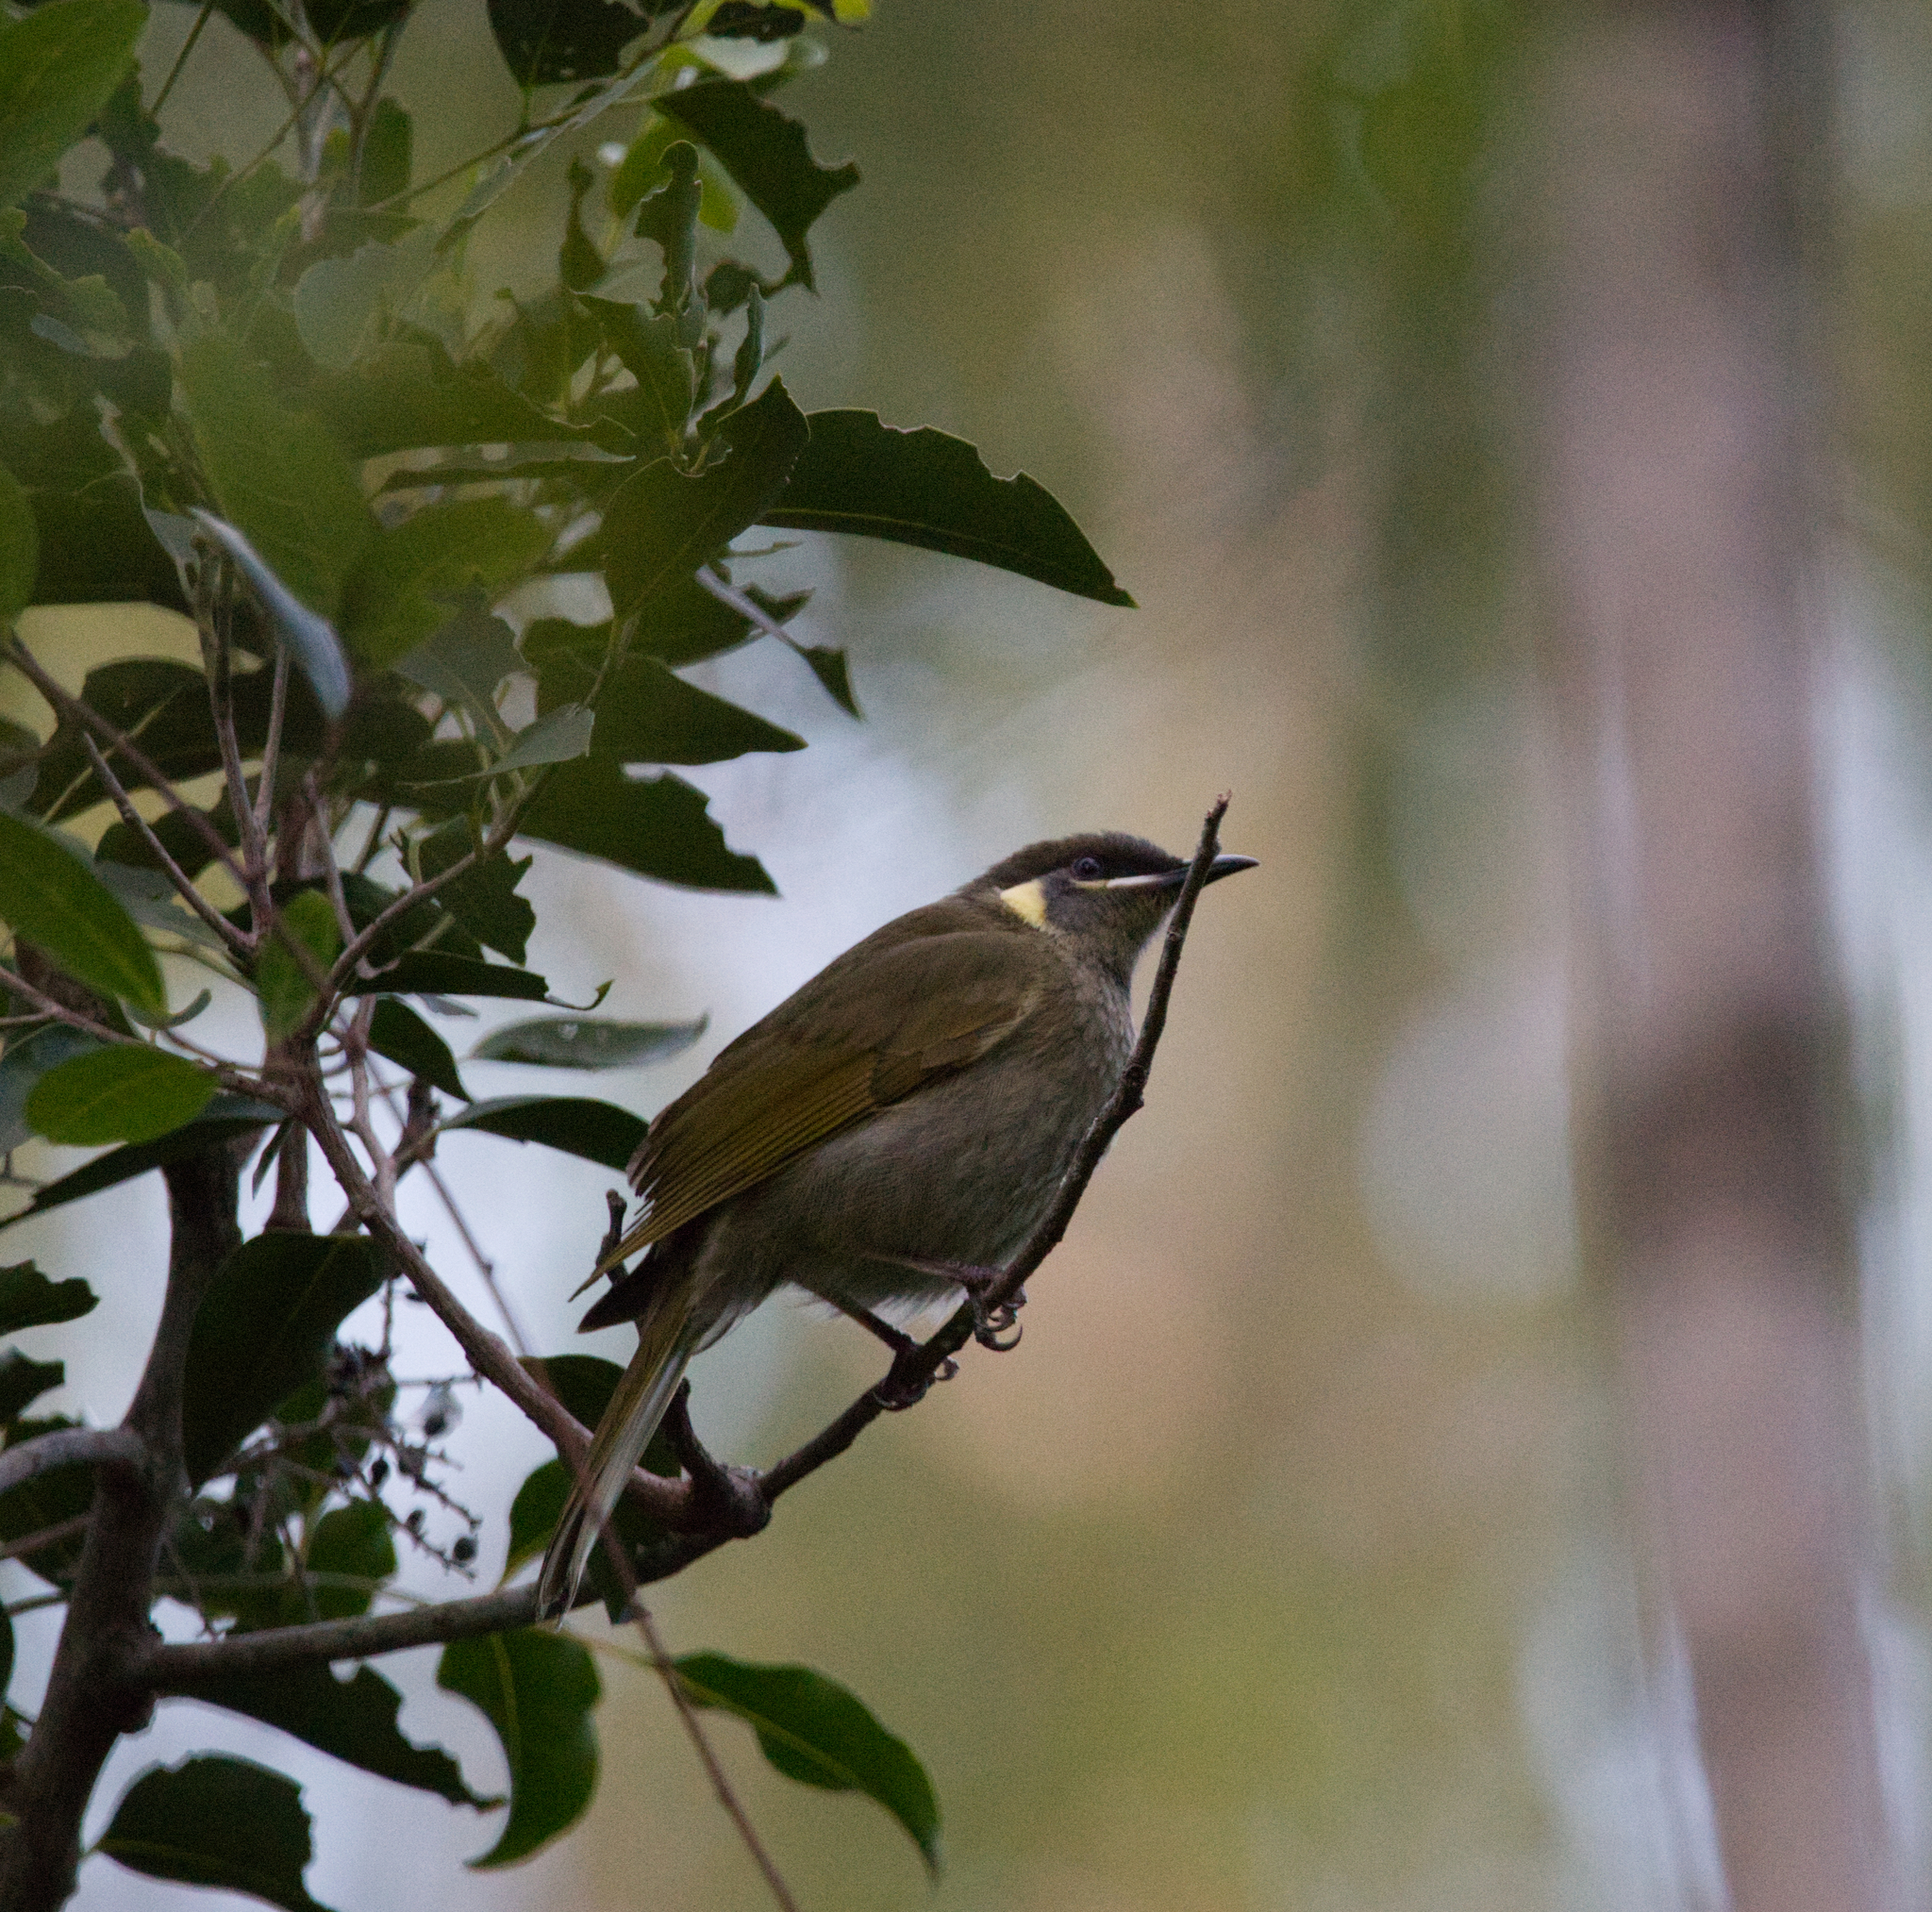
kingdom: Animalia
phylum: Chordata
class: Aves
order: Passeriformes
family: Meliphagidae
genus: Meliphaga
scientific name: Meliphaga lewinii
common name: Lewin's honeyeater
